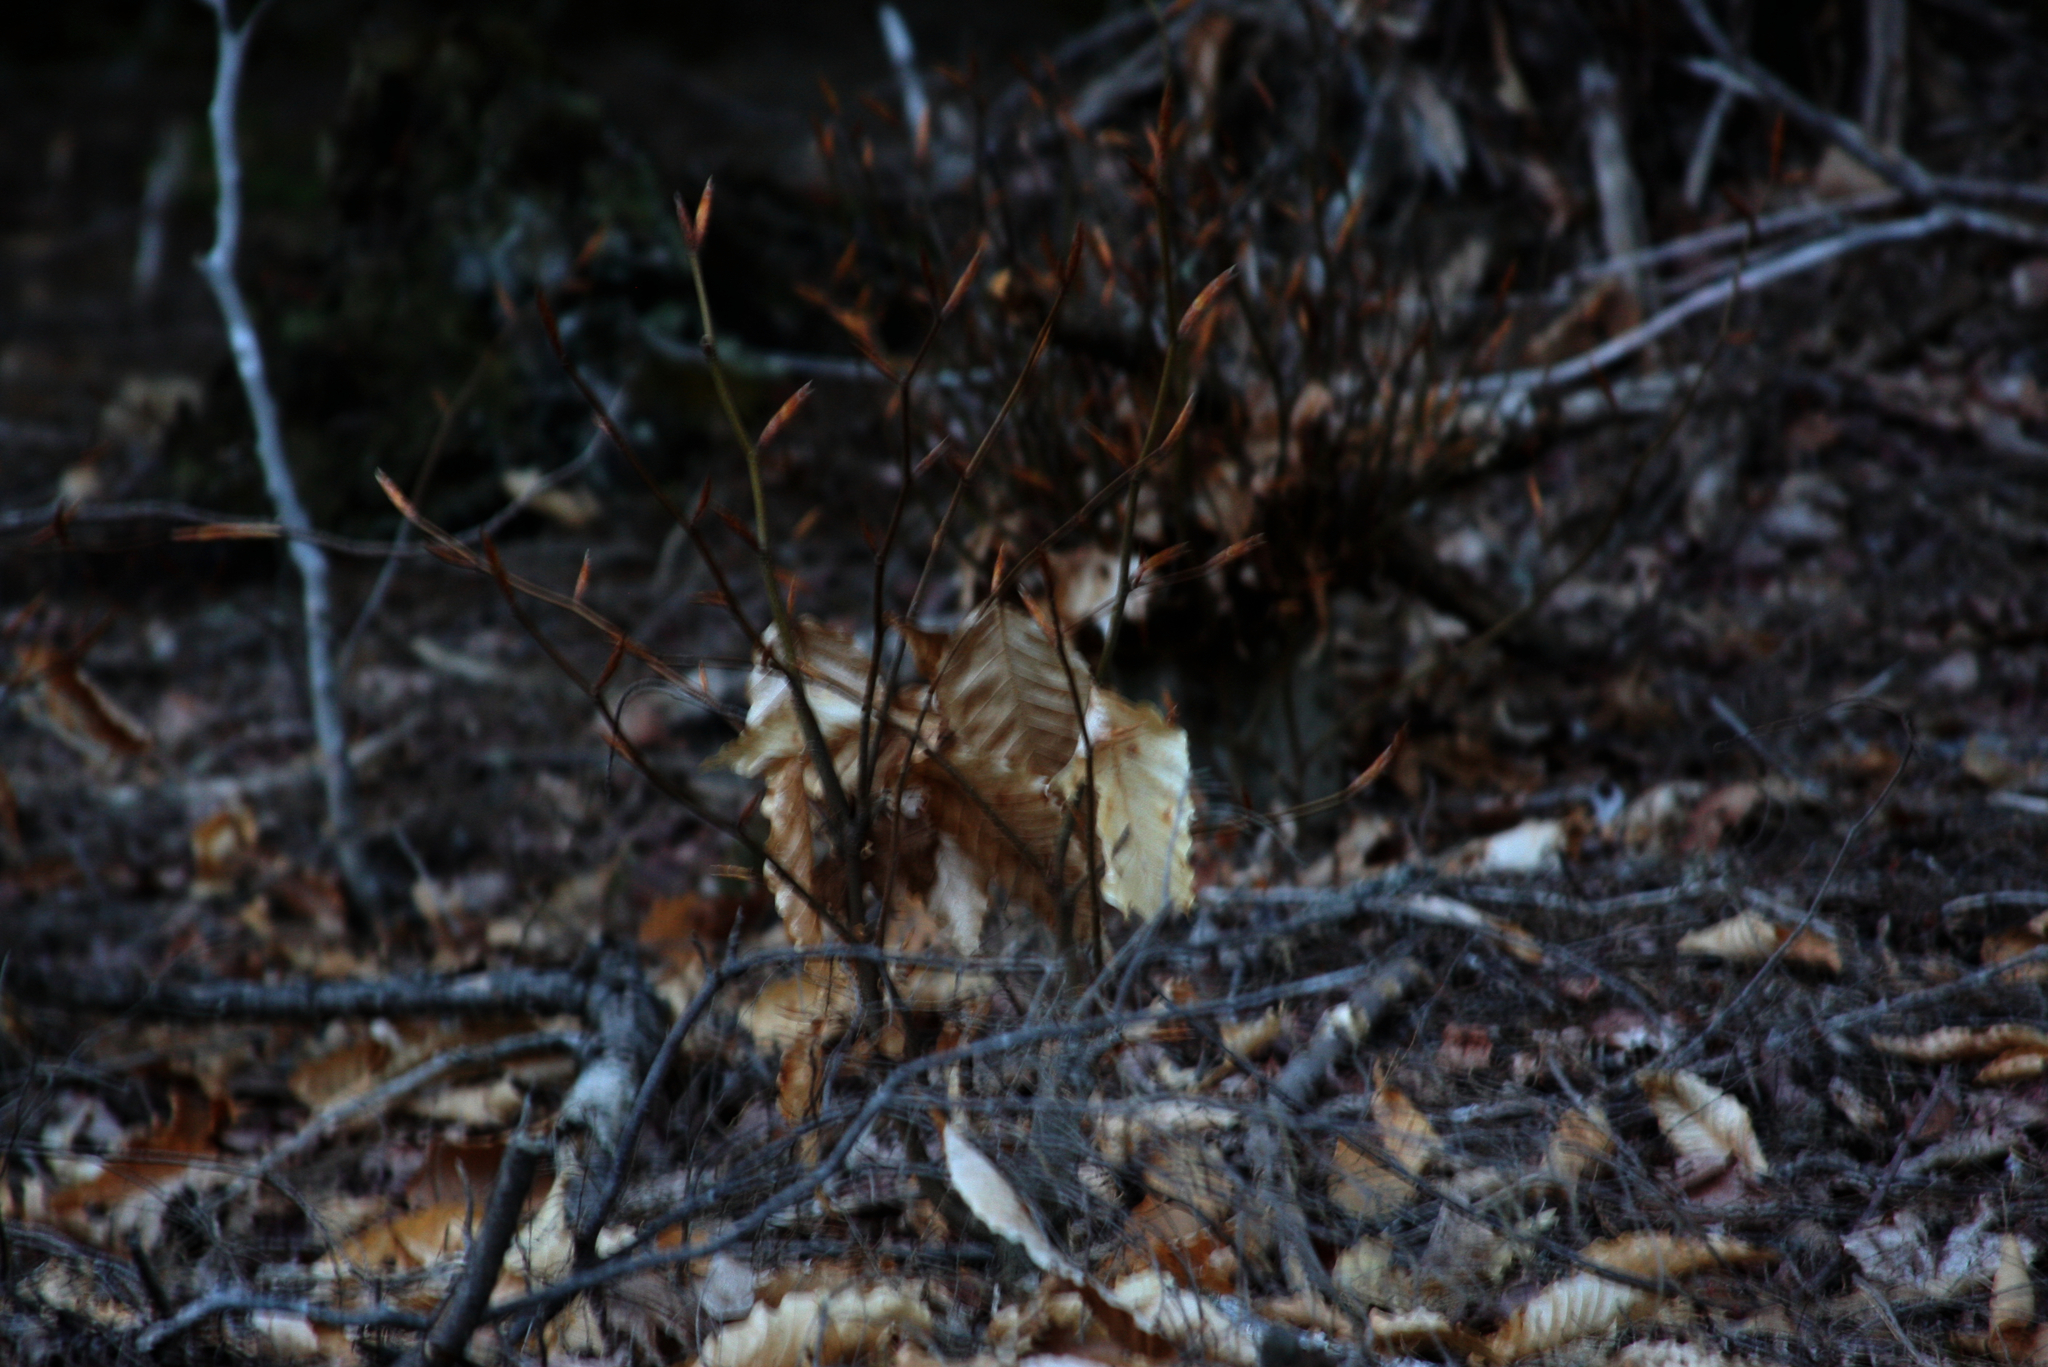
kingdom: Plantae
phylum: Tracheophyta
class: Magnoliopsida
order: Fagales
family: Fagaceae
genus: Fagus
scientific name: Fagus grandifolia
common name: American beech
